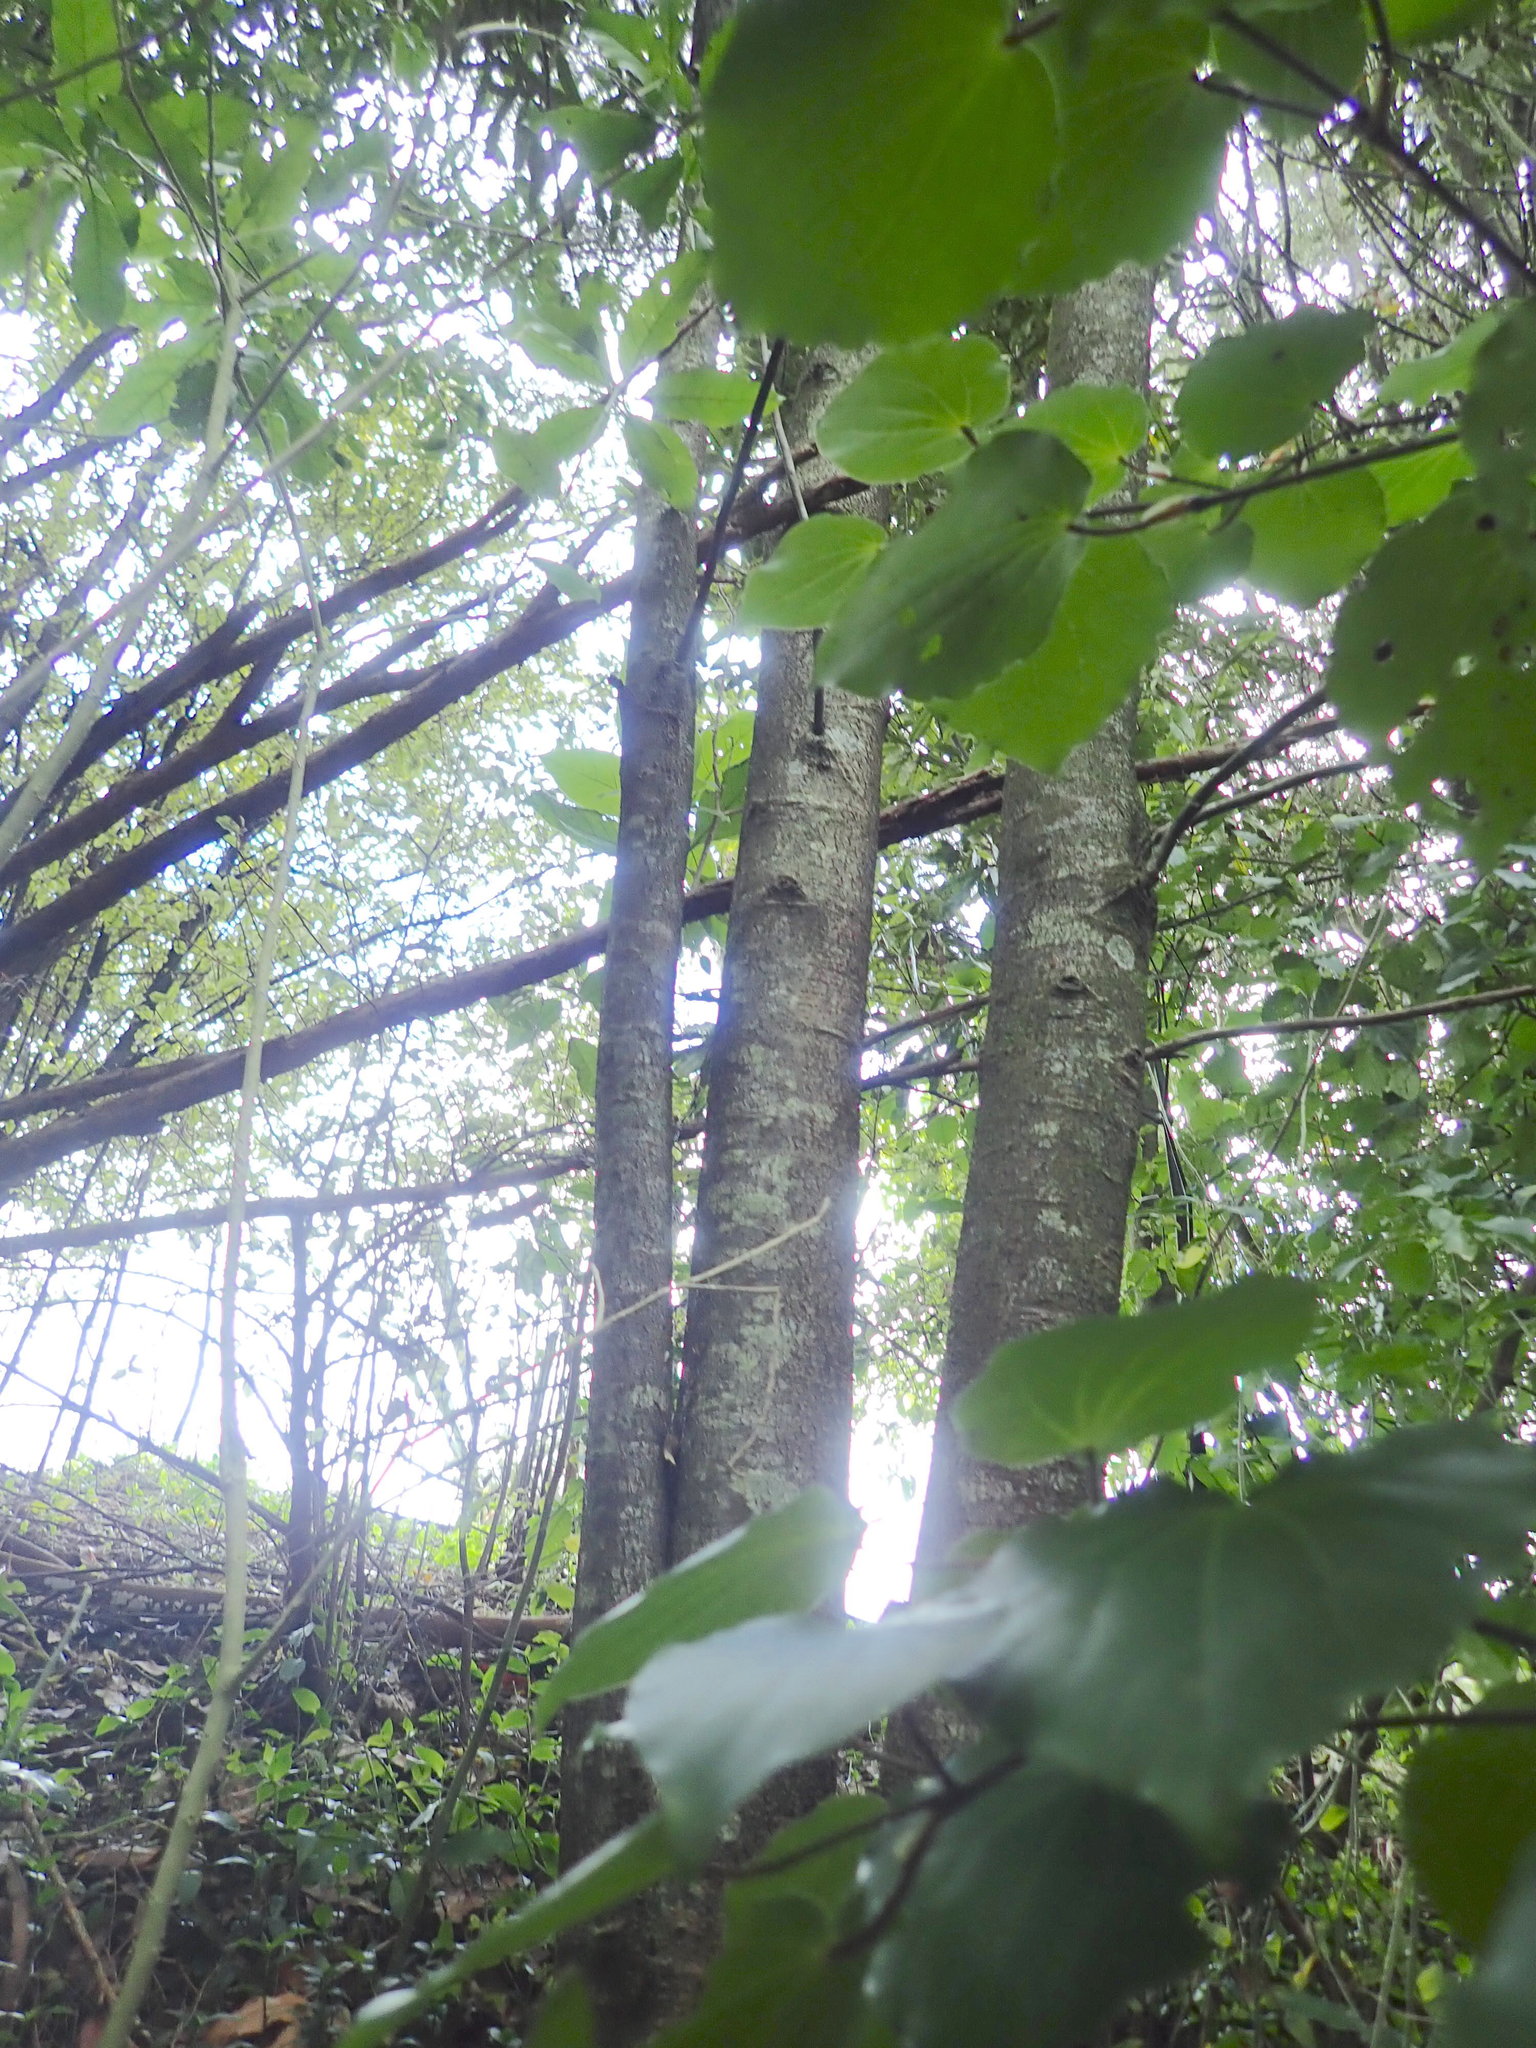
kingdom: Plantae
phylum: Tracheophyta
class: Magnoliopsida
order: Apiales
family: Pittosporaceae
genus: Pittosporum
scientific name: Pittosporum crassifolium
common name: Karo
